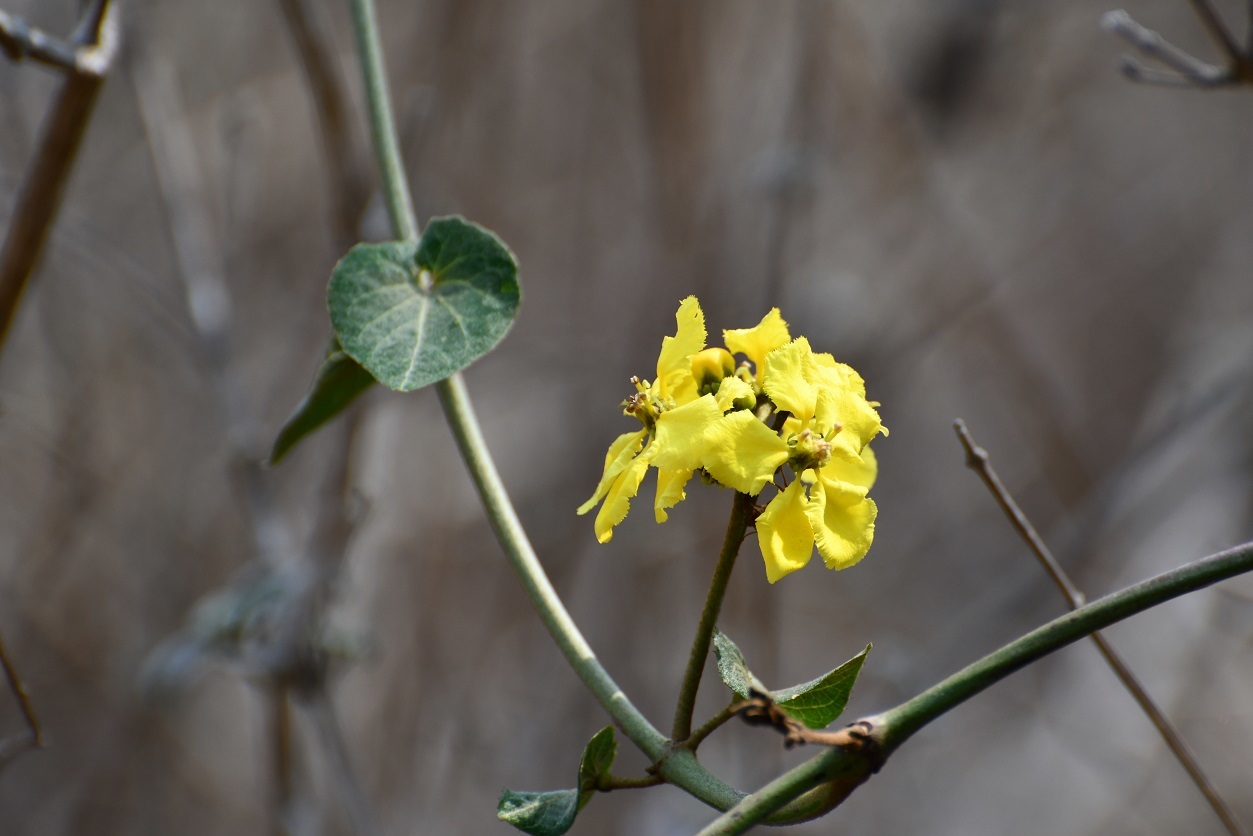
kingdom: Plantae
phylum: Tracheophyta
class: Magnoliopsida
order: Malpighiales
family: Malpighiaceae
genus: Stigmaphyllon
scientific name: Stigmaphyllon dichotomum
